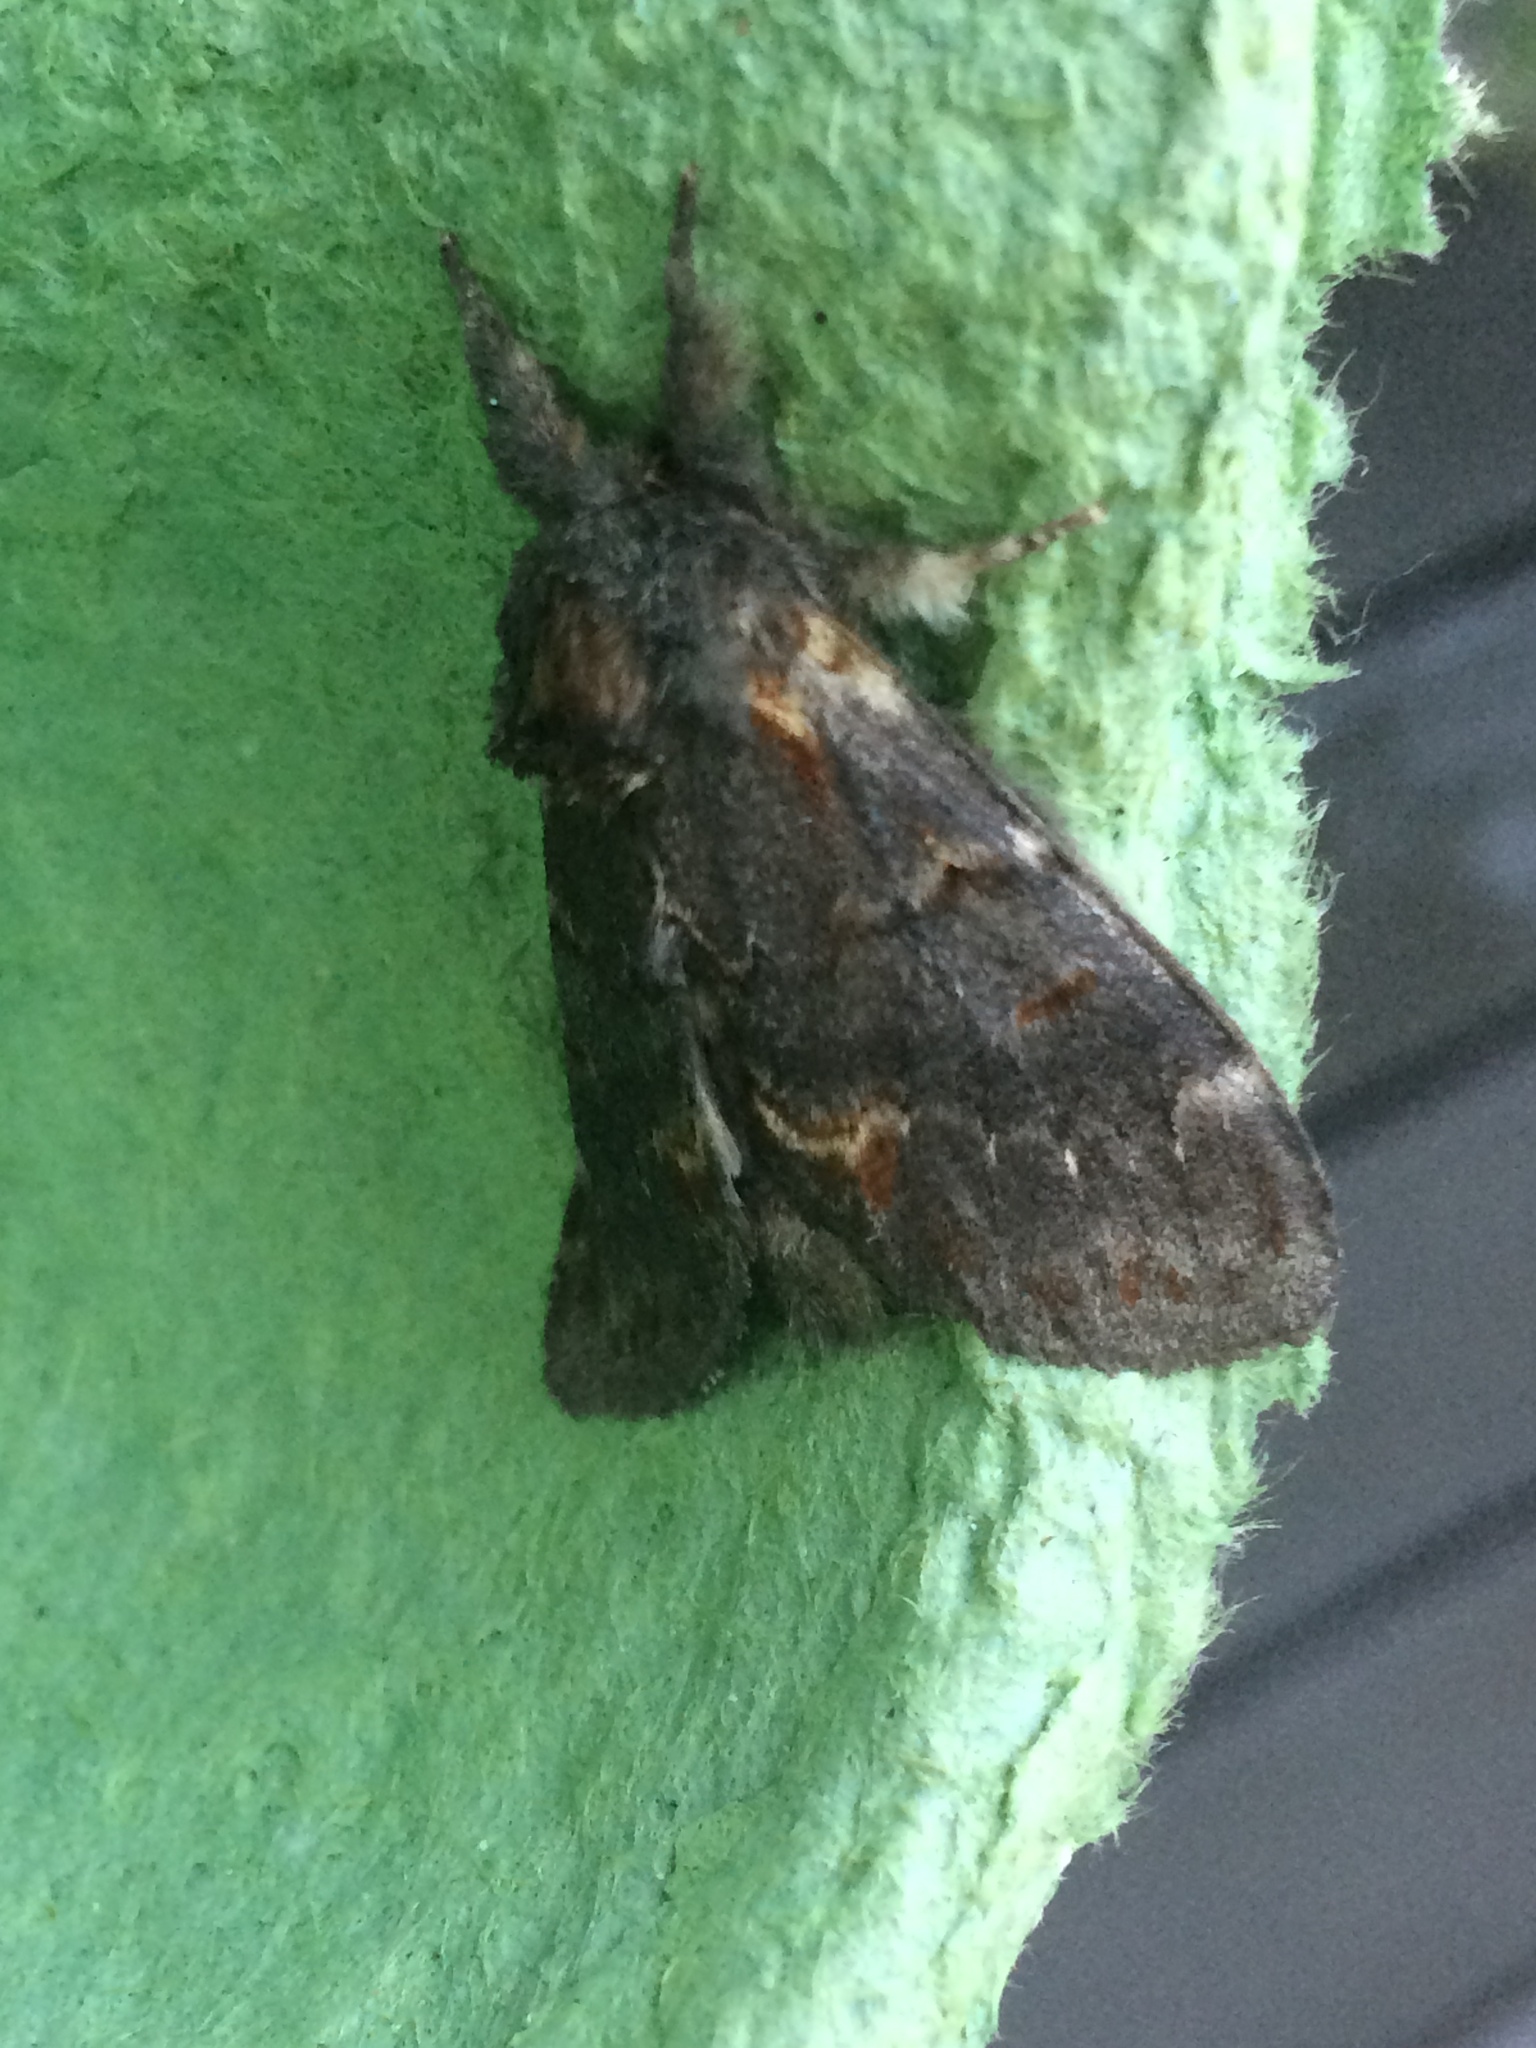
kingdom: Animalia
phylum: Arthropoda
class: Insecta
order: Lepidoptera
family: Notodontidae
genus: Notodonta
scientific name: Notodonta dromedarius
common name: Iron prominent
